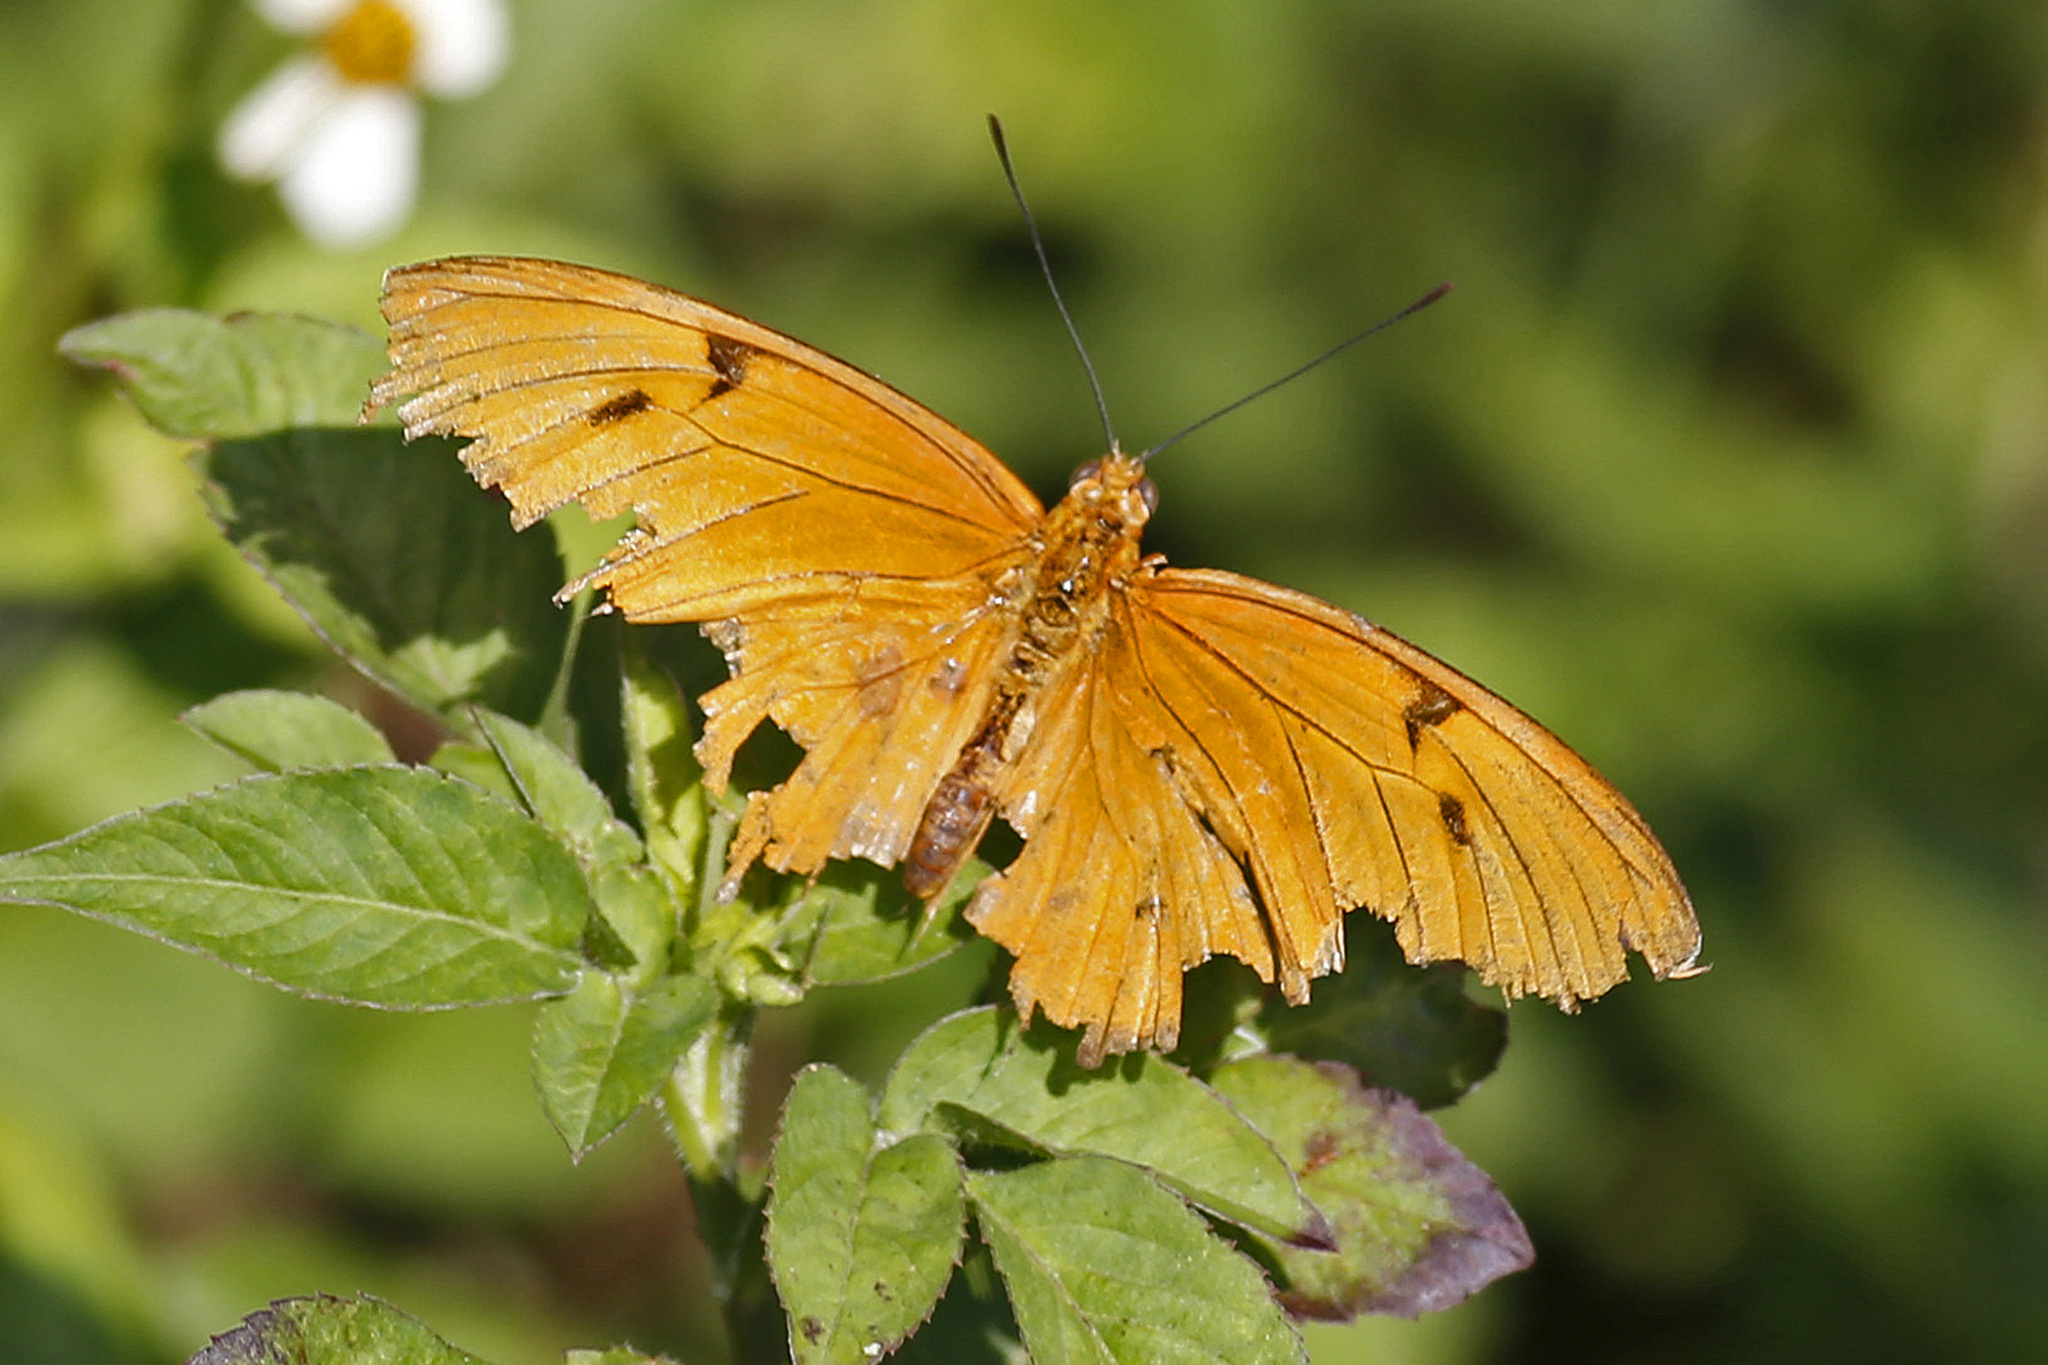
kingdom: Animalia
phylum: Arthropoda
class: Insecta
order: Lepidoptera
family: Nymphalidae
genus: Dryas
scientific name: Dryas iulia
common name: Flambeau
